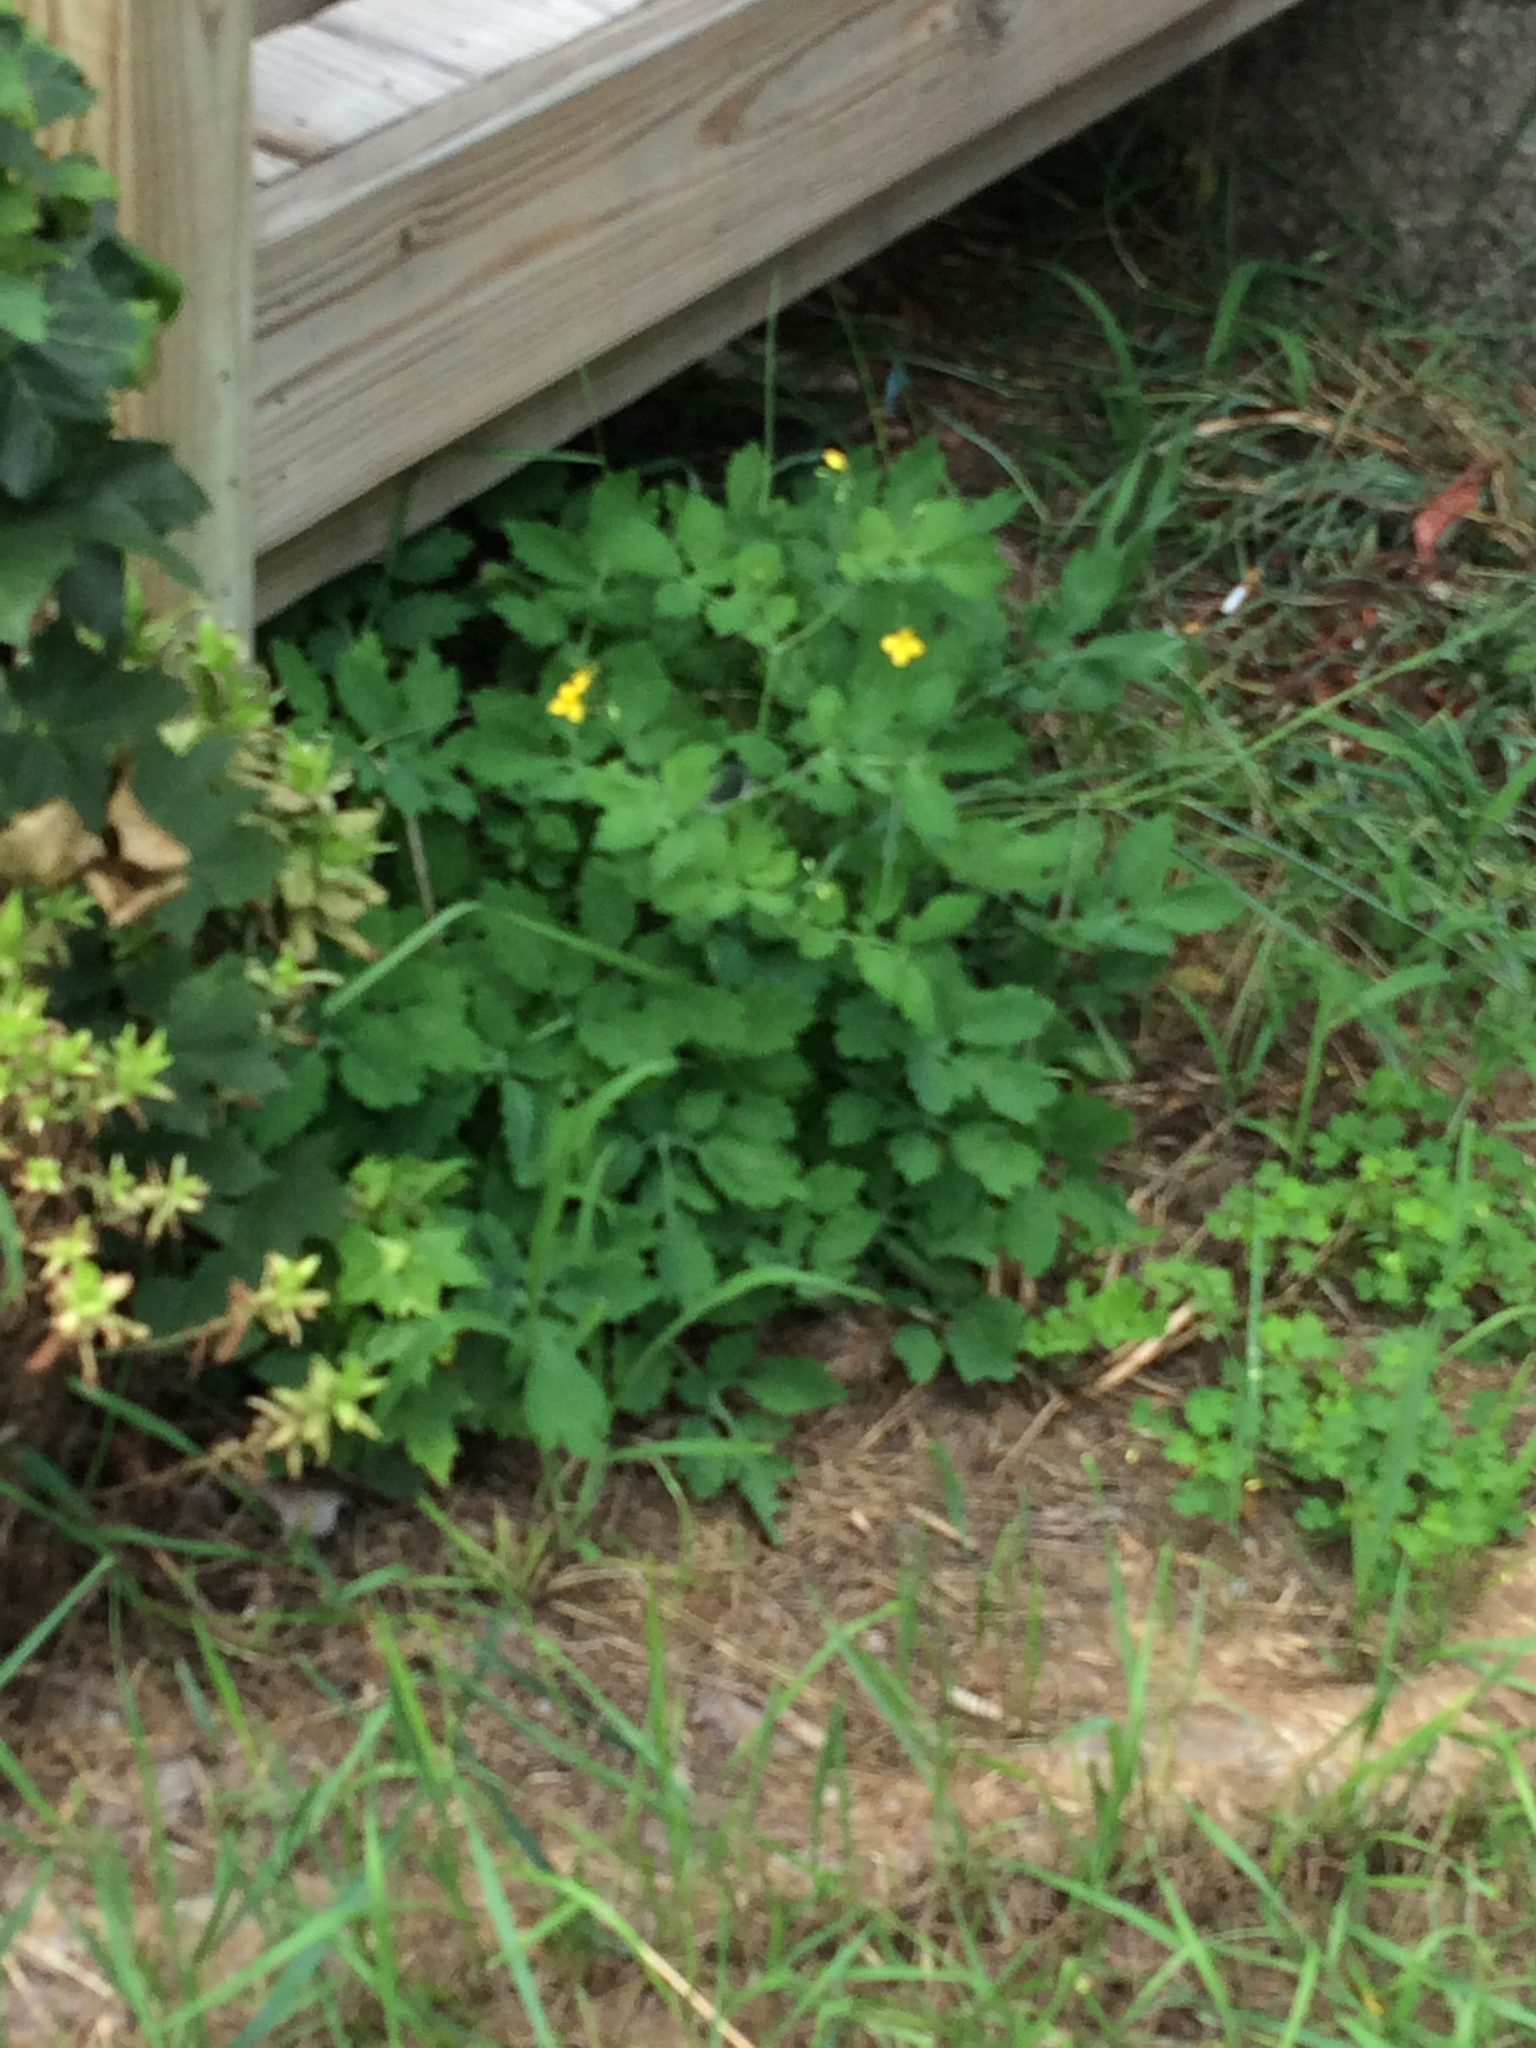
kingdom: Plantae
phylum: Tracheophyta
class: Magnoliopsida
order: Ranunculales
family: Papaveraceae
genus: Chelidonium
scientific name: Chelidonium majus
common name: Greater celandine
